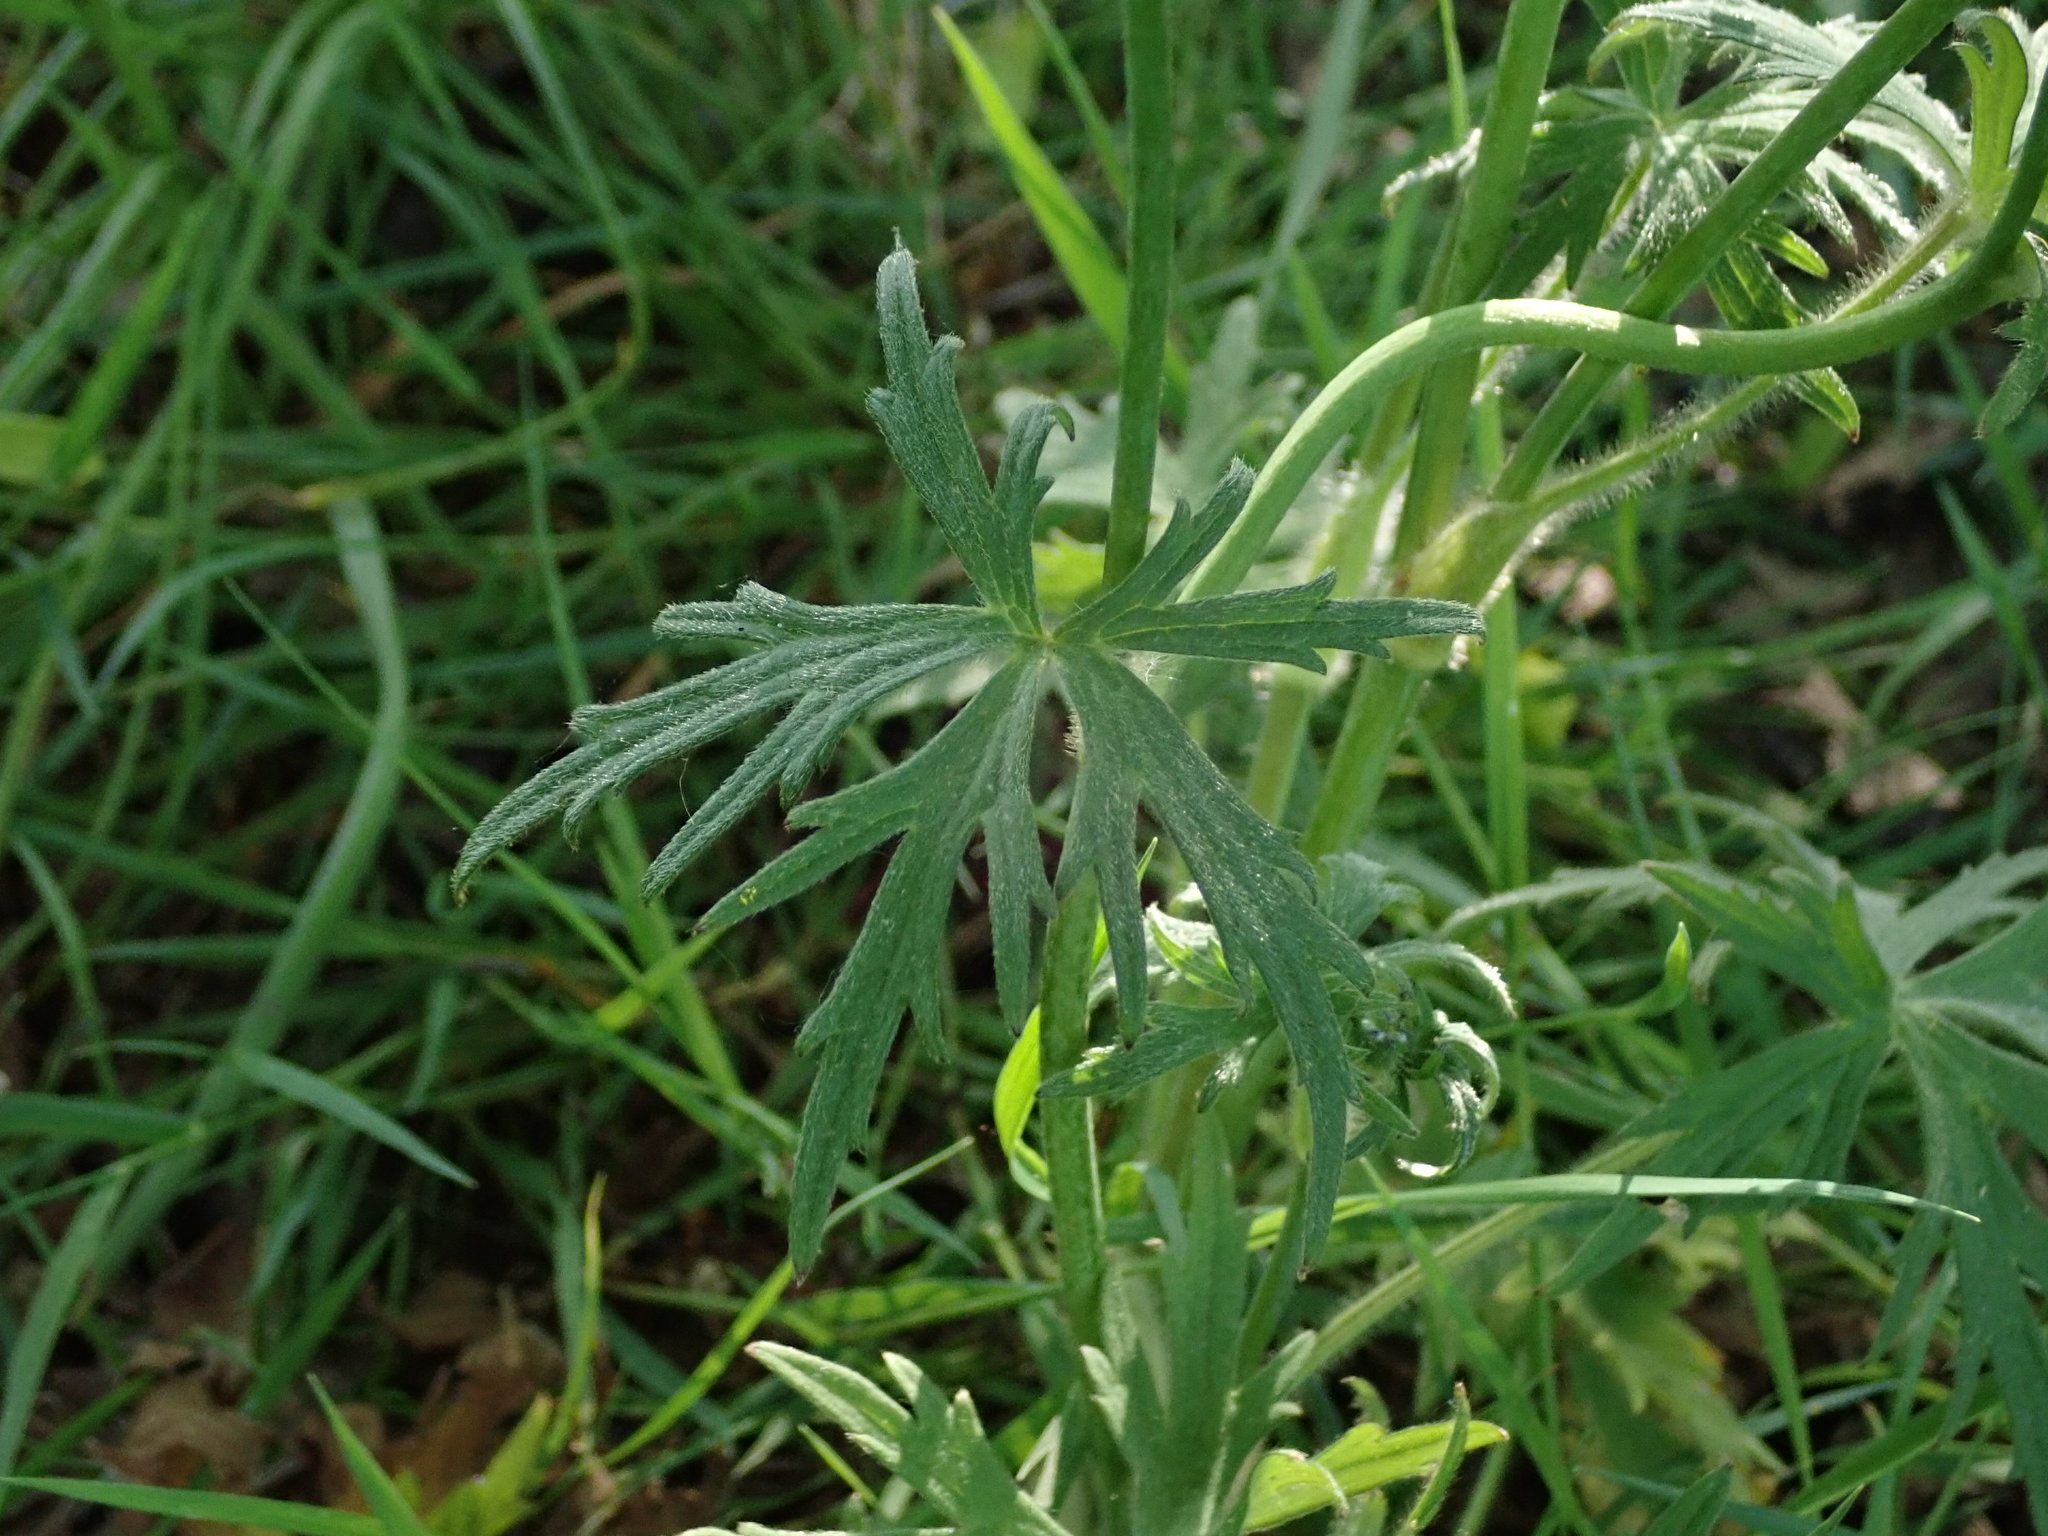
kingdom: Plantae
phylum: Tracheophyta
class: Magnoliopsida
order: Ranunculales
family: Ranunculaceae
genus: Ranunculus
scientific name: Ranunculus acris
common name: Meadow buttercup
